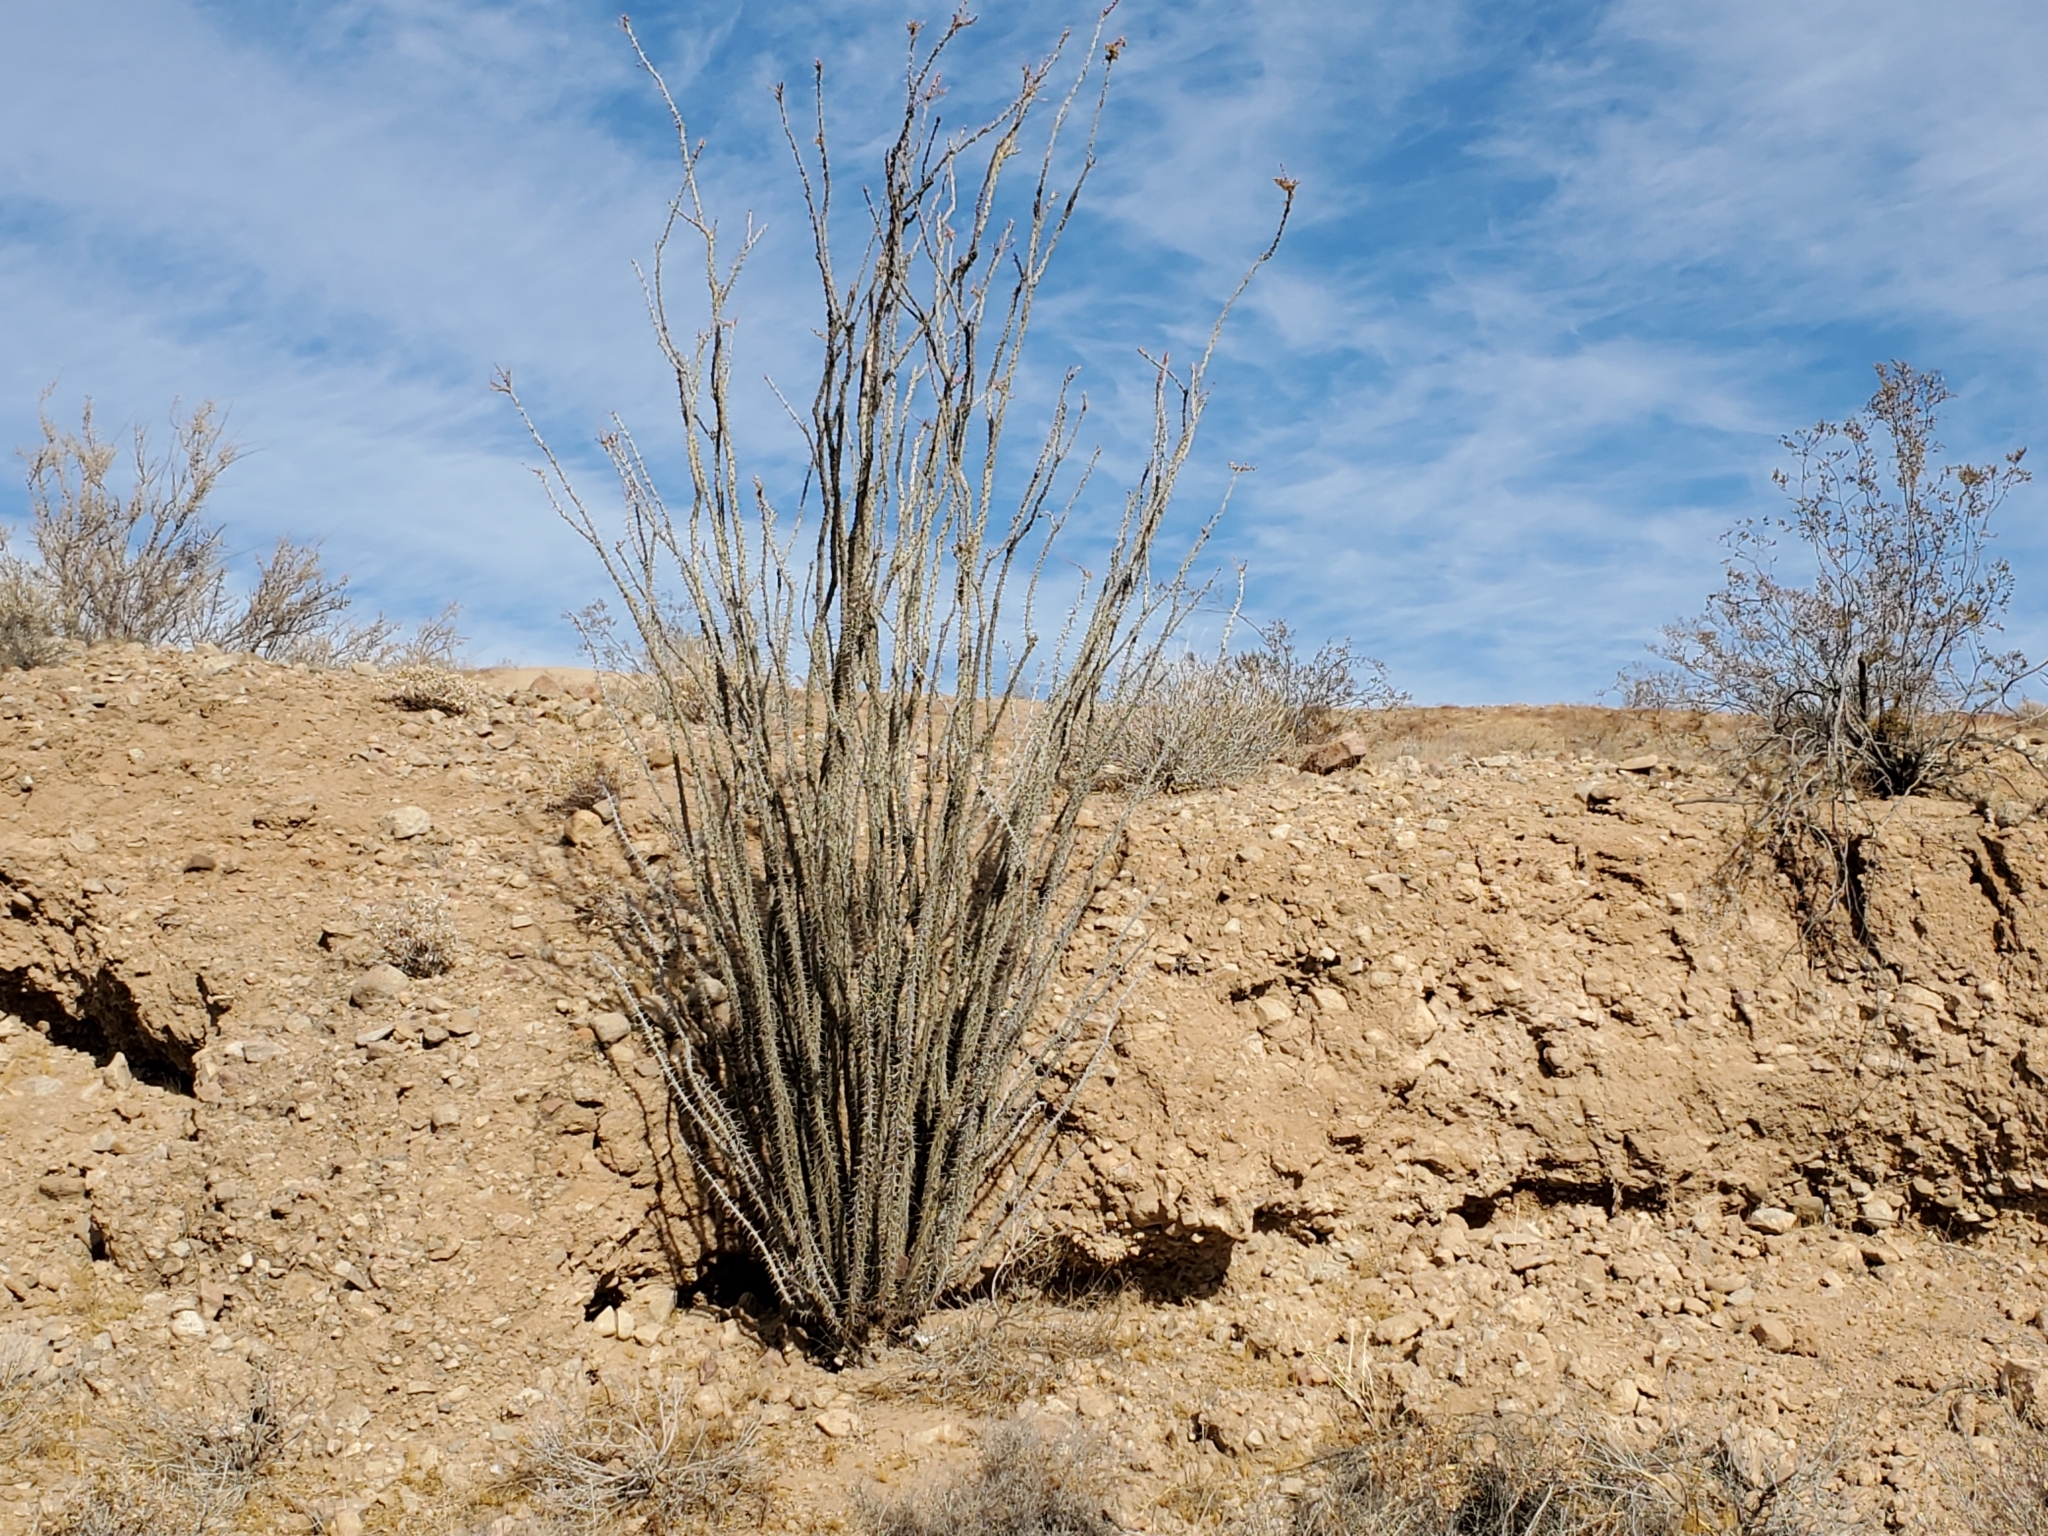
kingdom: Plantae
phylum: Tracheophyta
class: Magnoliopsida
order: Ericales
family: Fouquieriaceae
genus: Fouquieria
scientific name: Fouquieria splendens
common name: Vine-cactus
